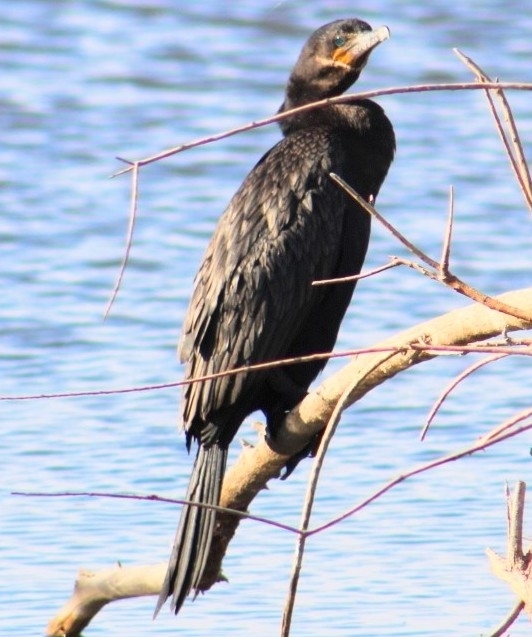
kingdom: Animalia
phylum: Chordata
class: Aves
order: Suliformes
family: Phalacrocoracidae
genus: Phalacrocorax
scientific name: Phalacrocorax brasilianus
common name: Neotropic cormorant
